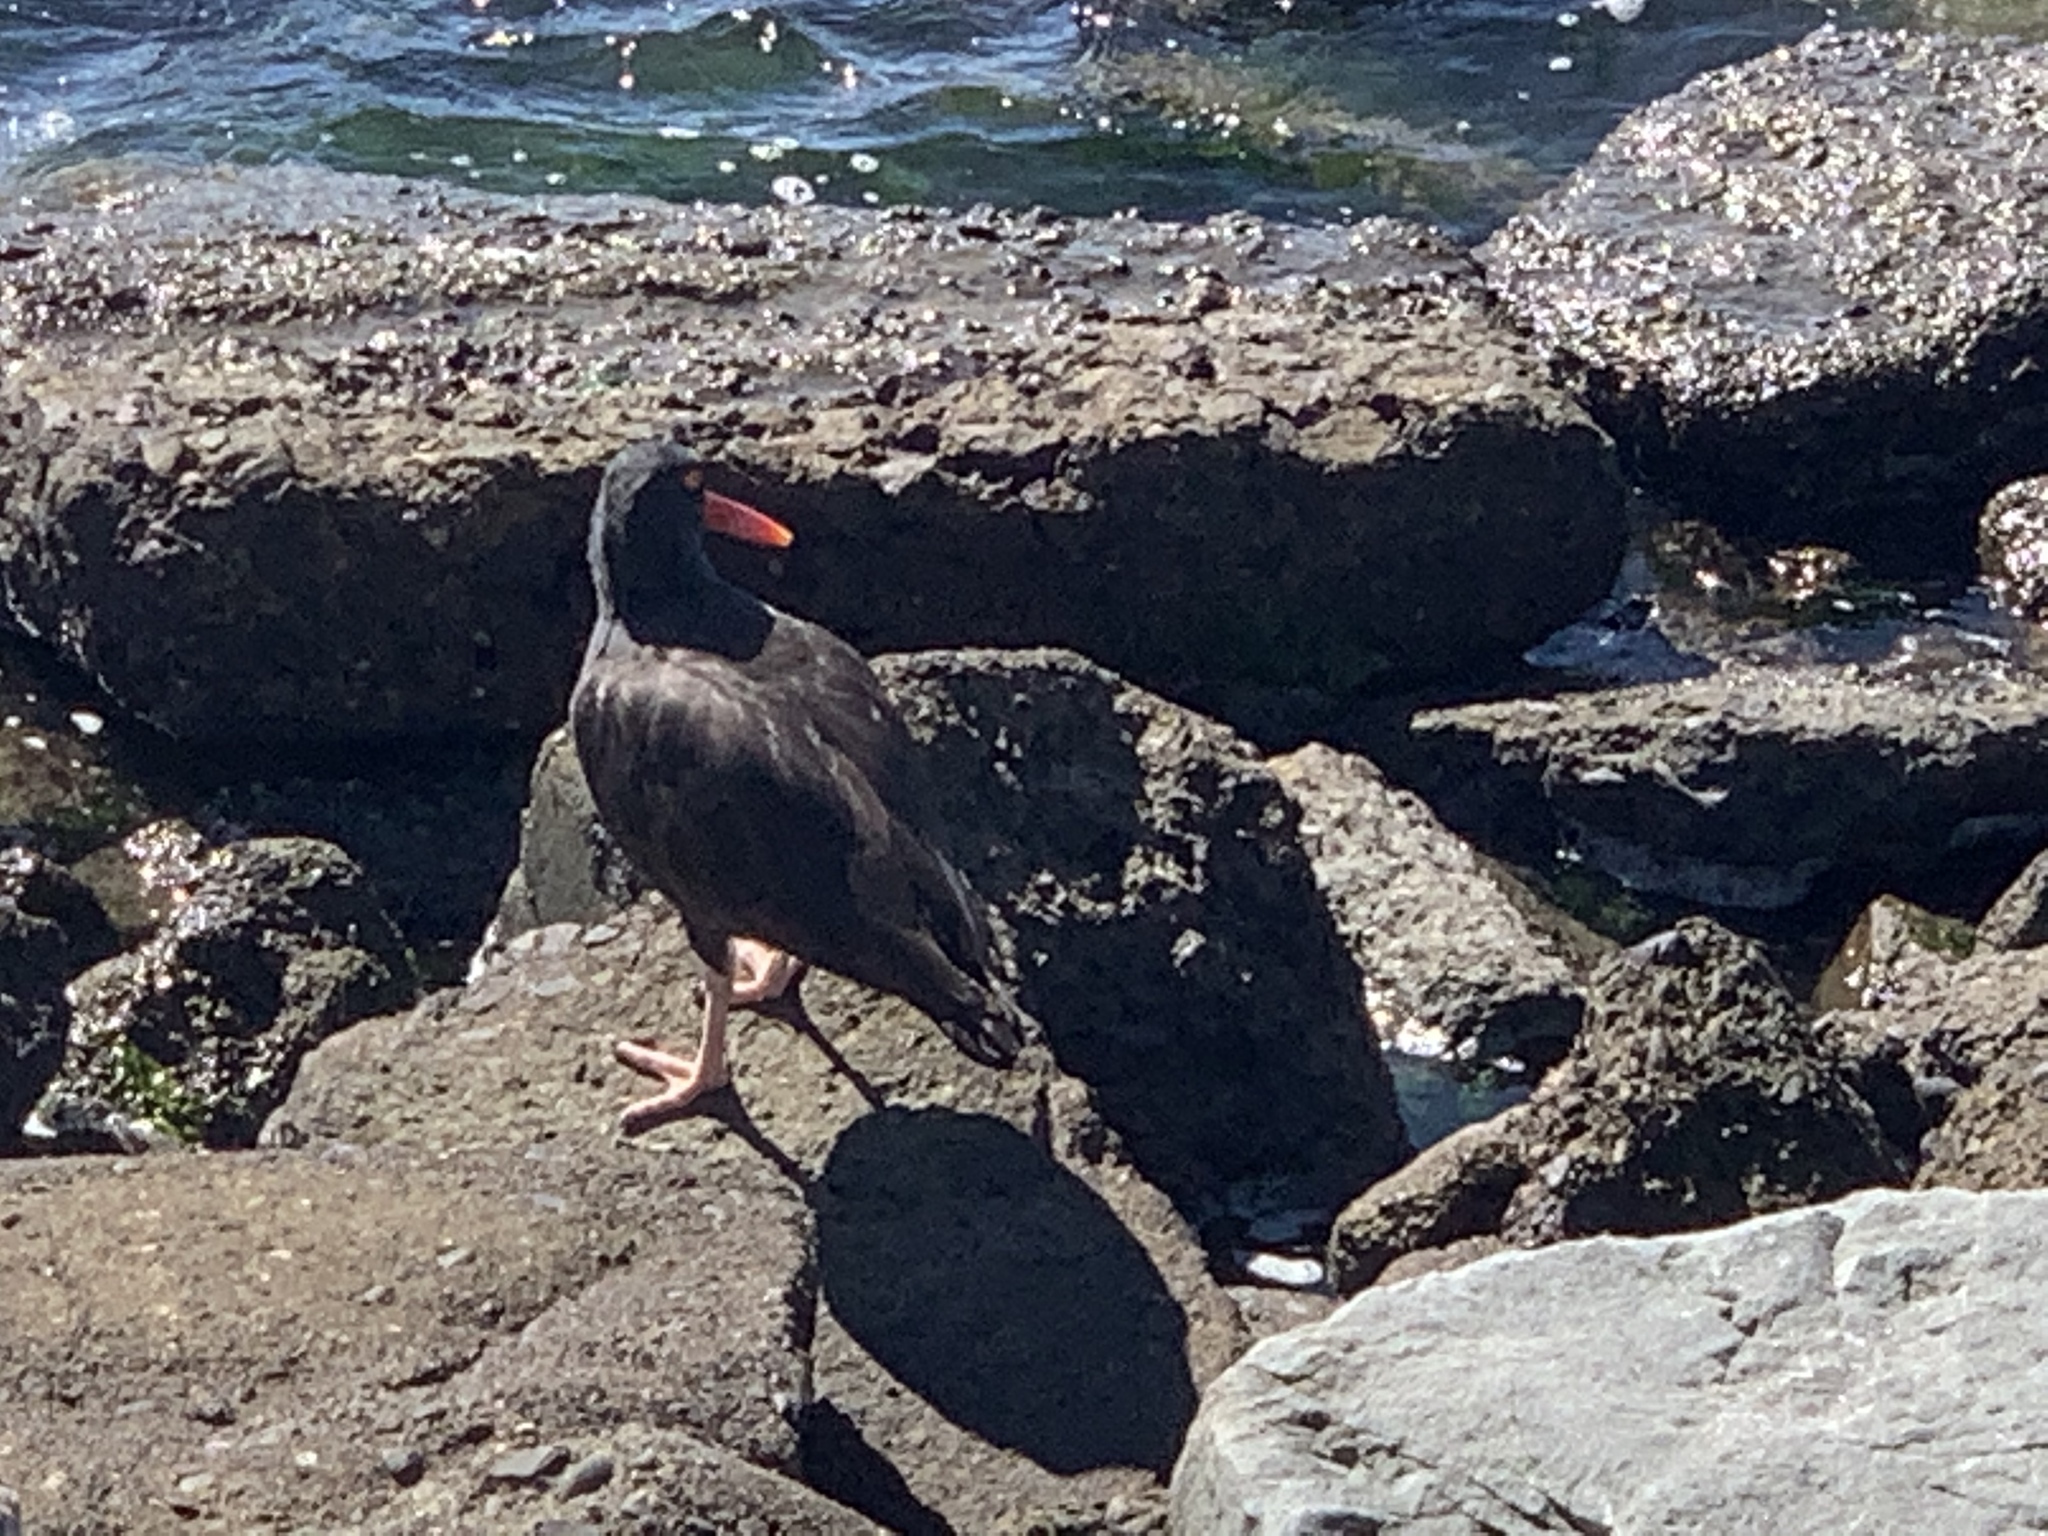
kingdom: Animalia
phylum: Chordata
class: Aves
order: Charadriiformes
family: Haematopodidae
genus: Haematopus
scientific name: Haematopus bachmani
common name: Black oystercatcher
